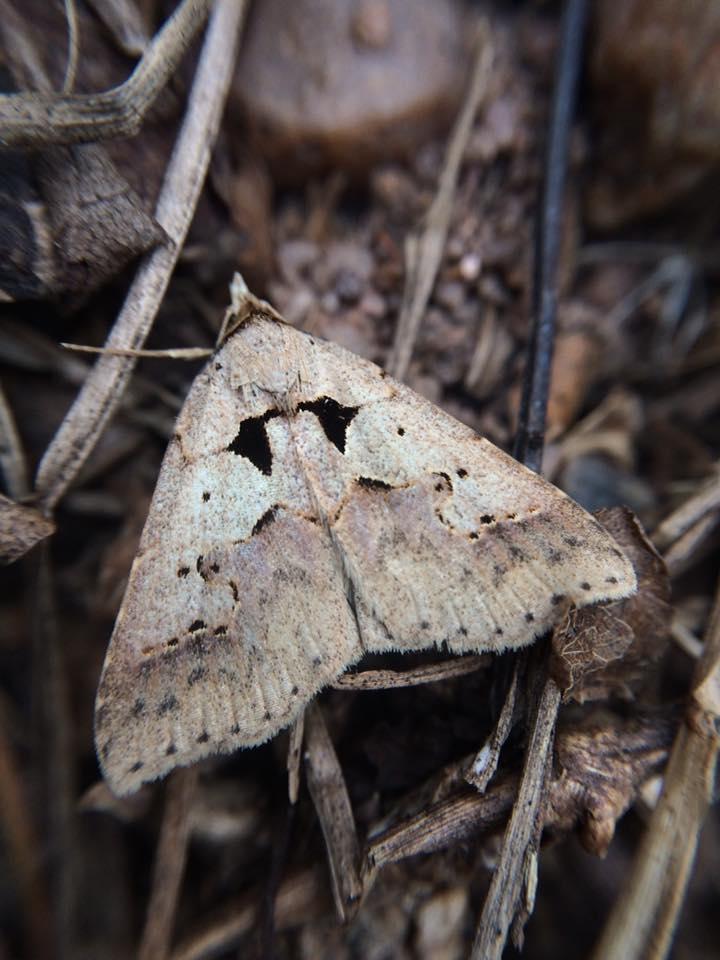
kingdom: Animalia
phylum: Arthropoda
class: Insecta
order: Lepidoptera
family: Erebidae
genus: Anoba
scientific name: Anoba sinuata
